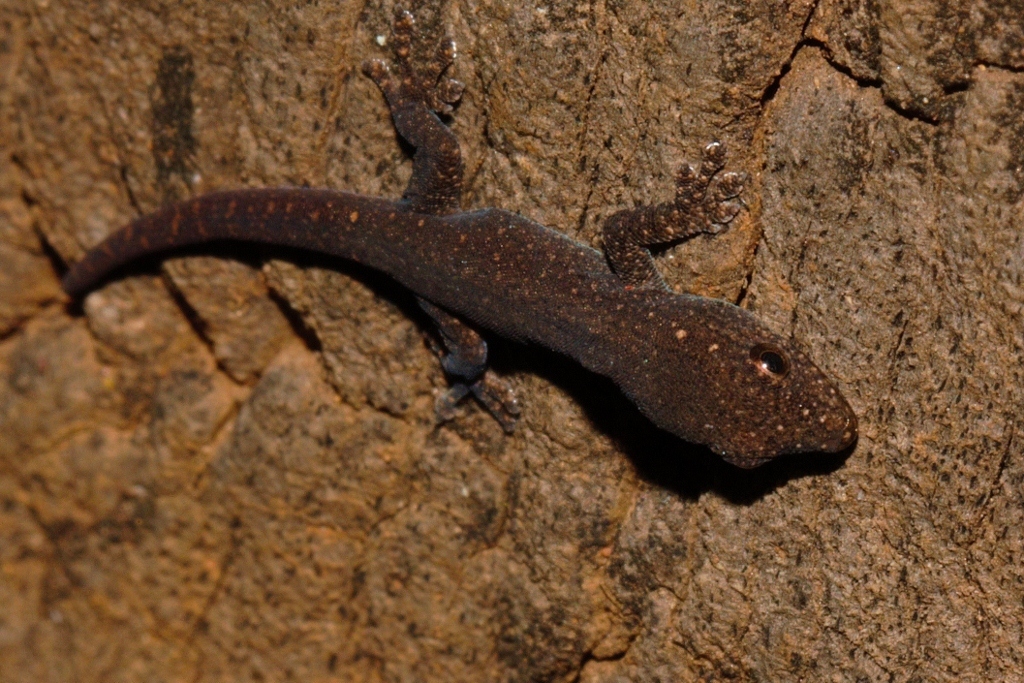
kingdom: Animalia
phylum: Chordata
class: Squamata
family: Gekkonidae
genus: Lygodactylus
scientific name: Lygodactylus capensis
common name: Cape dwarf gecko
